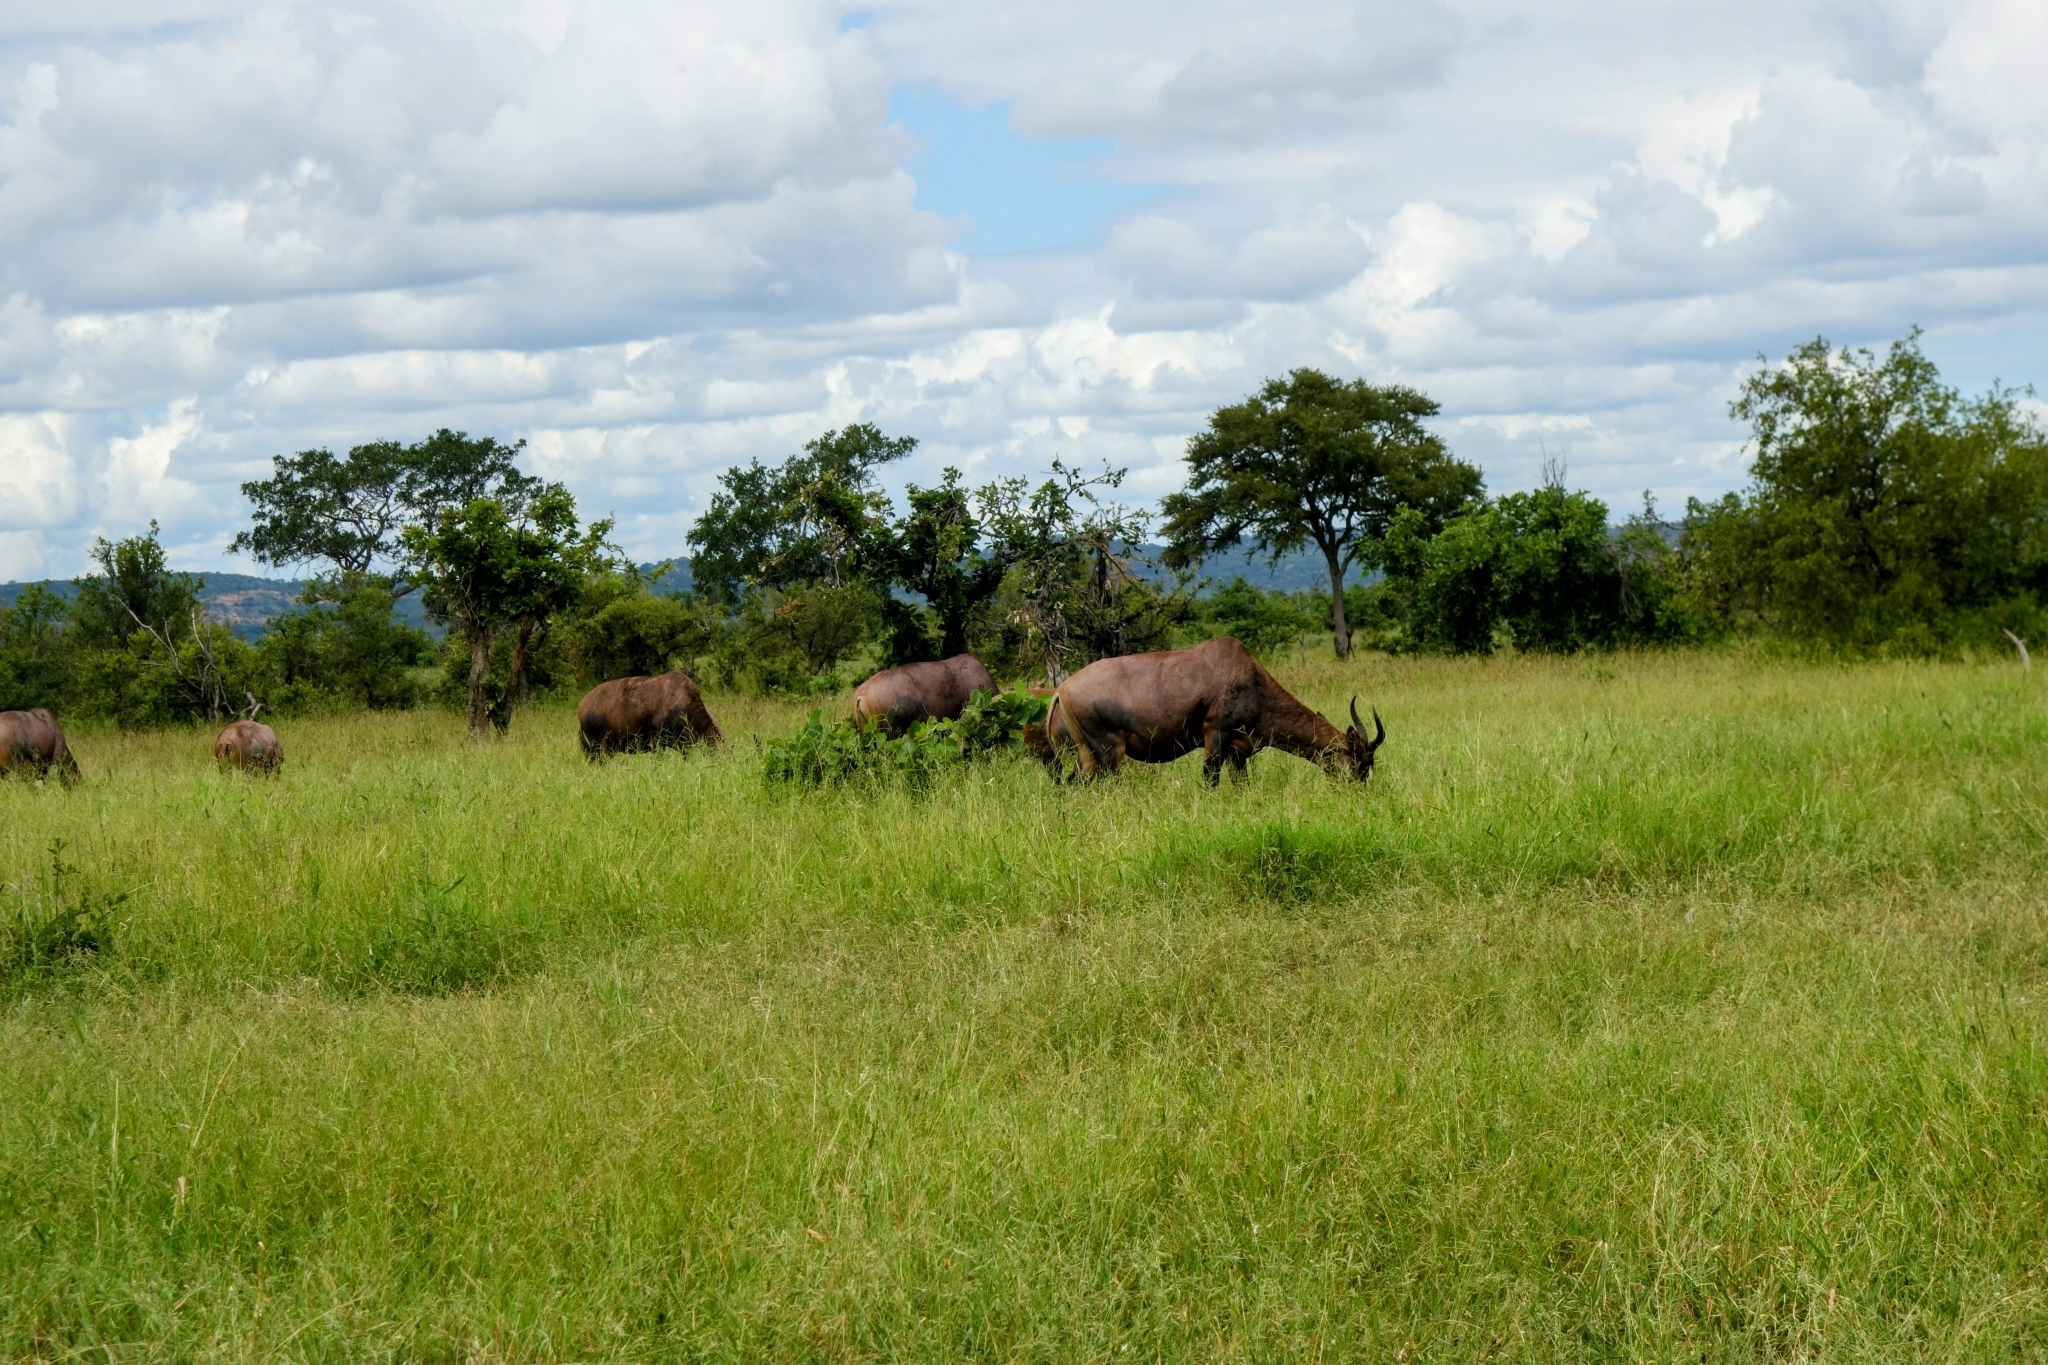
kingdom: Animalia
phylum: Chordata
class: Mammalia
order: Artiodactyla
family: Bovidae
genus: Damaliscus
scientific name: Damaliscus lunatus
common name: Common tsessebe
